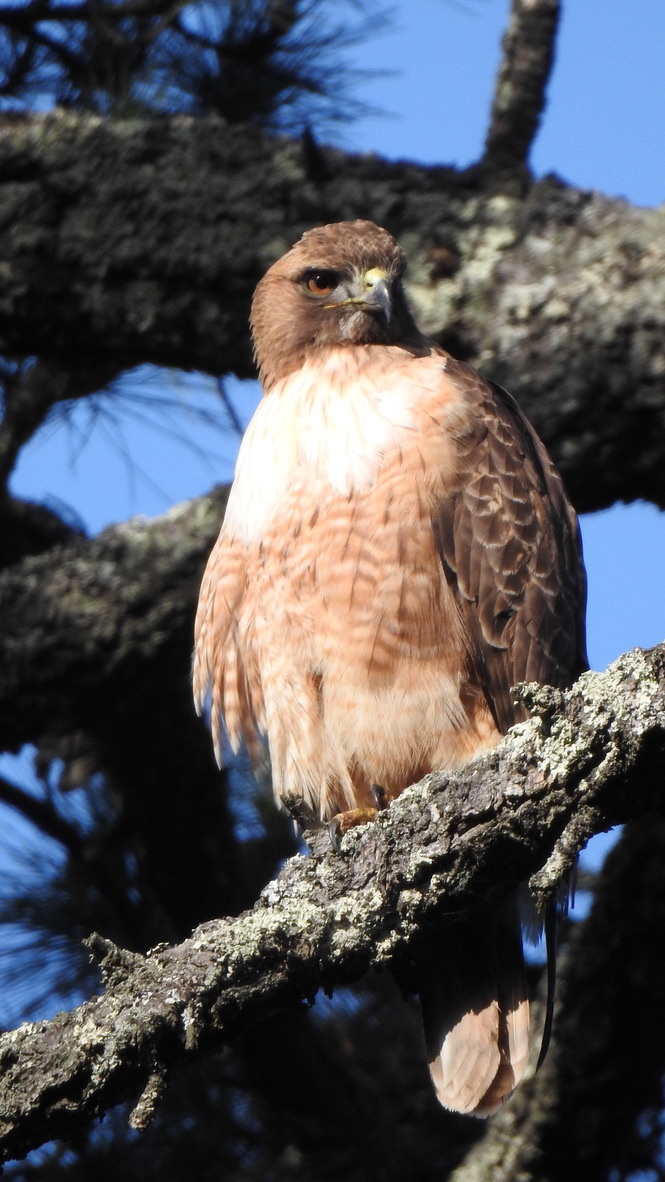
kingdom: Animalia
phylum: Chordata
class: Aves
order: Accipitriformes
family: Accipitridae
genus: Buteo
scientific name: Buteo jamaicensis
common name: Red-tailed hawk
